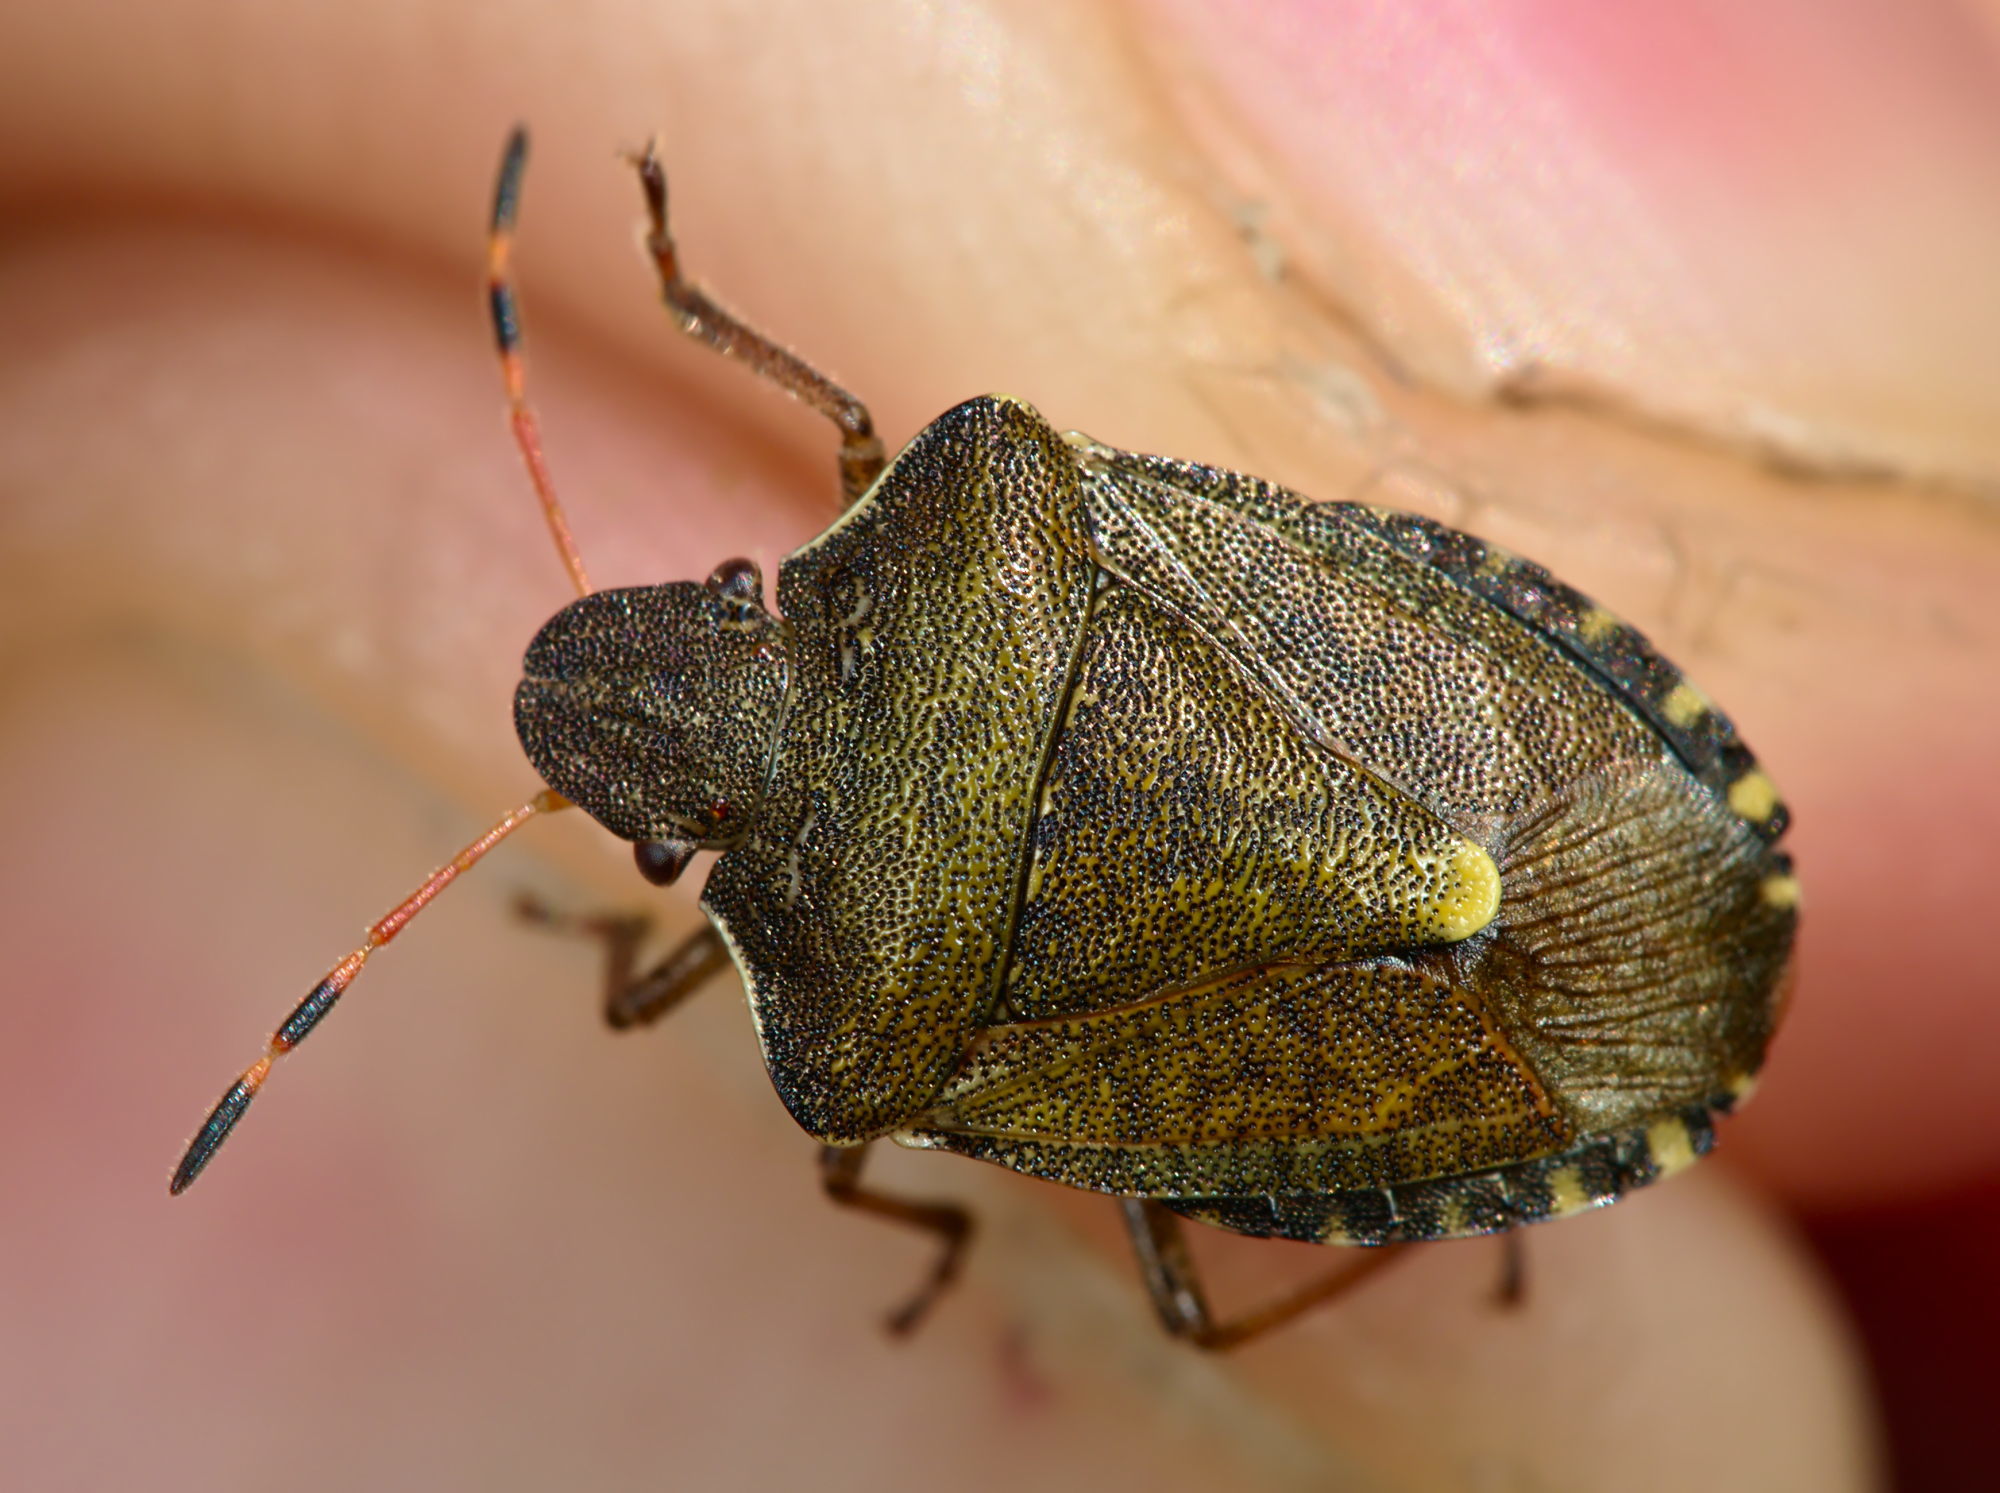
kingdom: Animalia
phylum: Arthropoda
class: Insecta
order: Hemiptera
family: Pentatomidae
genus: Holcostethus
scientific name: Holcostethus strictus
